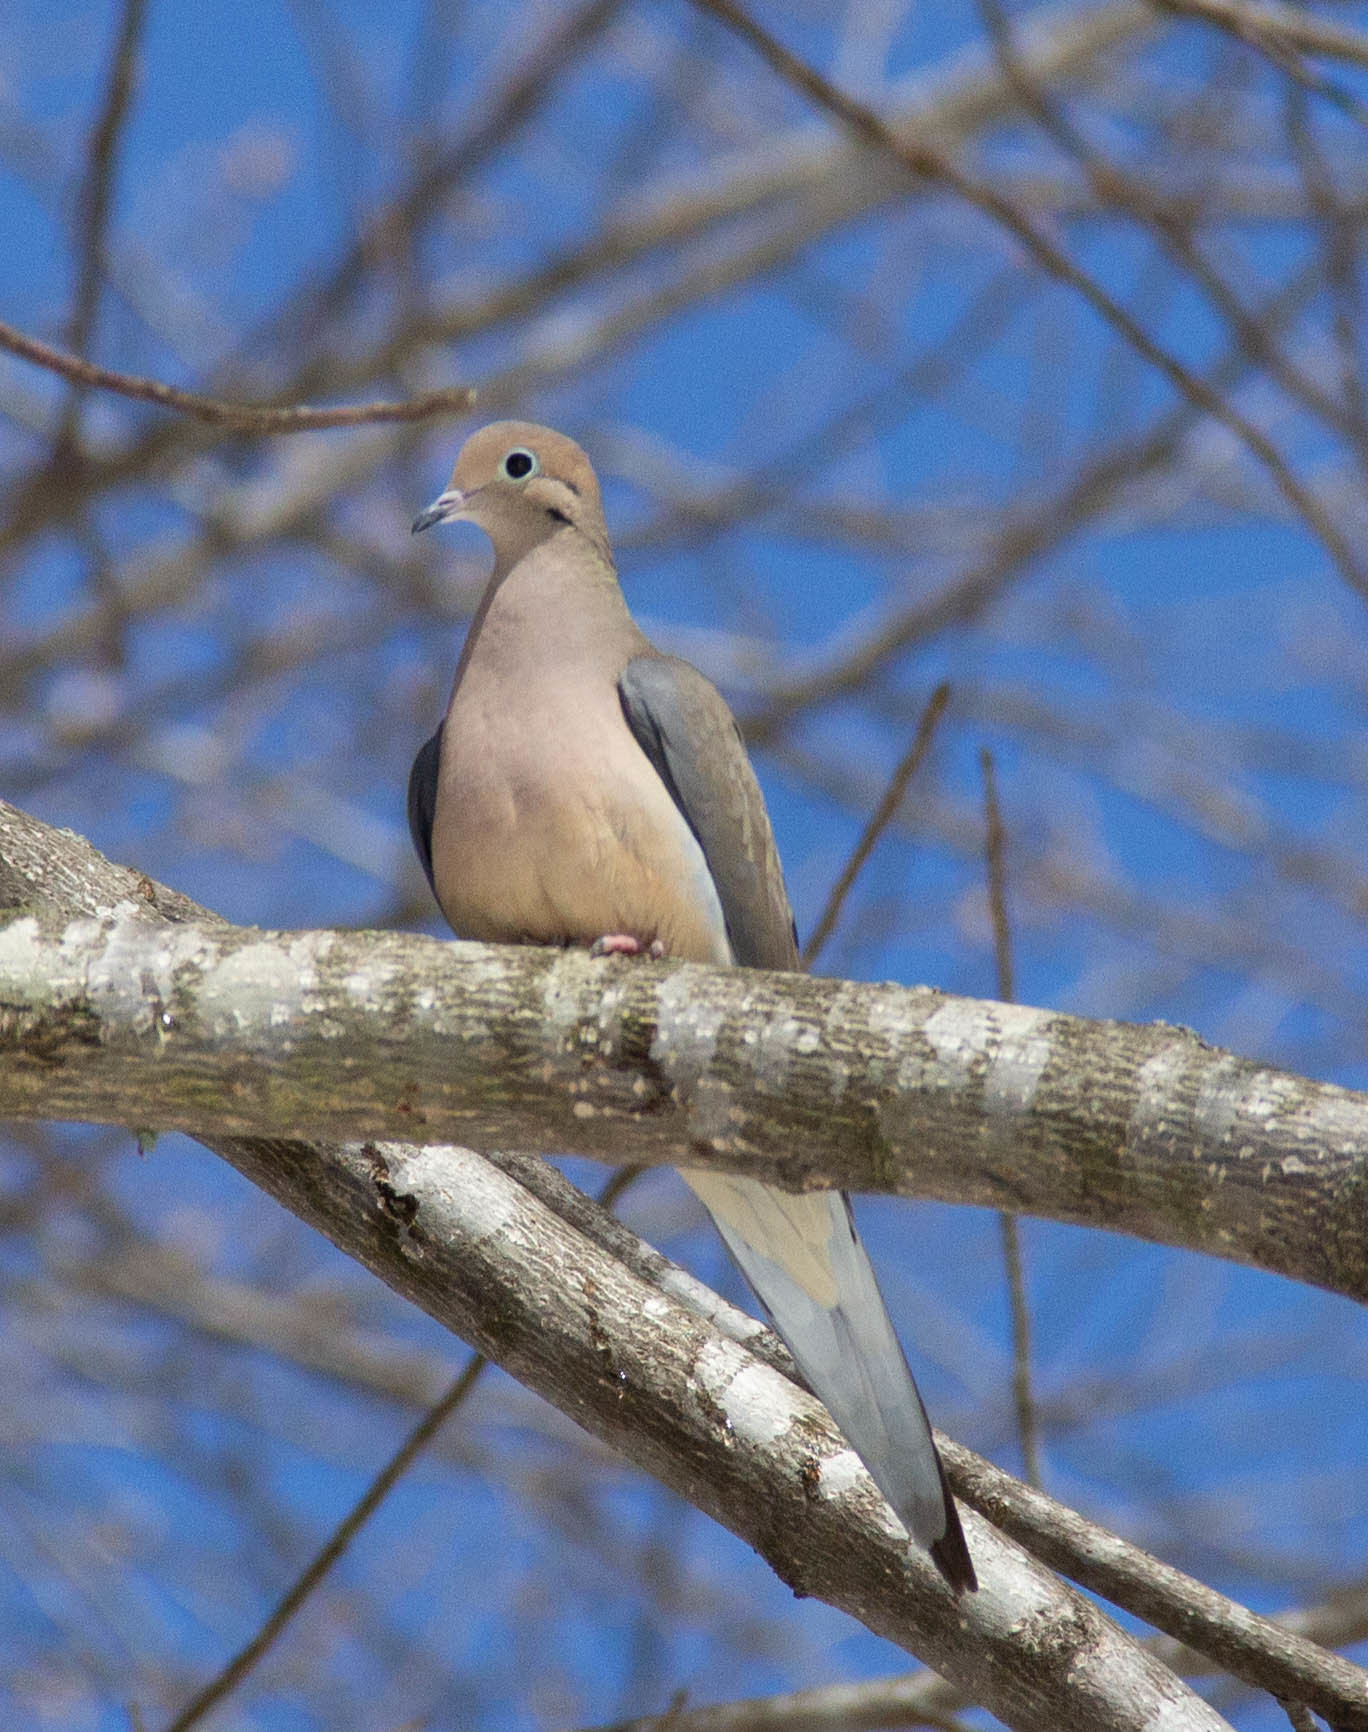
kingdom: Animalia
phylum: Chordata
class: Aves
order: Columbiformes
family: Columbidae
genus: Zenaida
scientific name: Zenaida macroura
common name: Mourning dove
